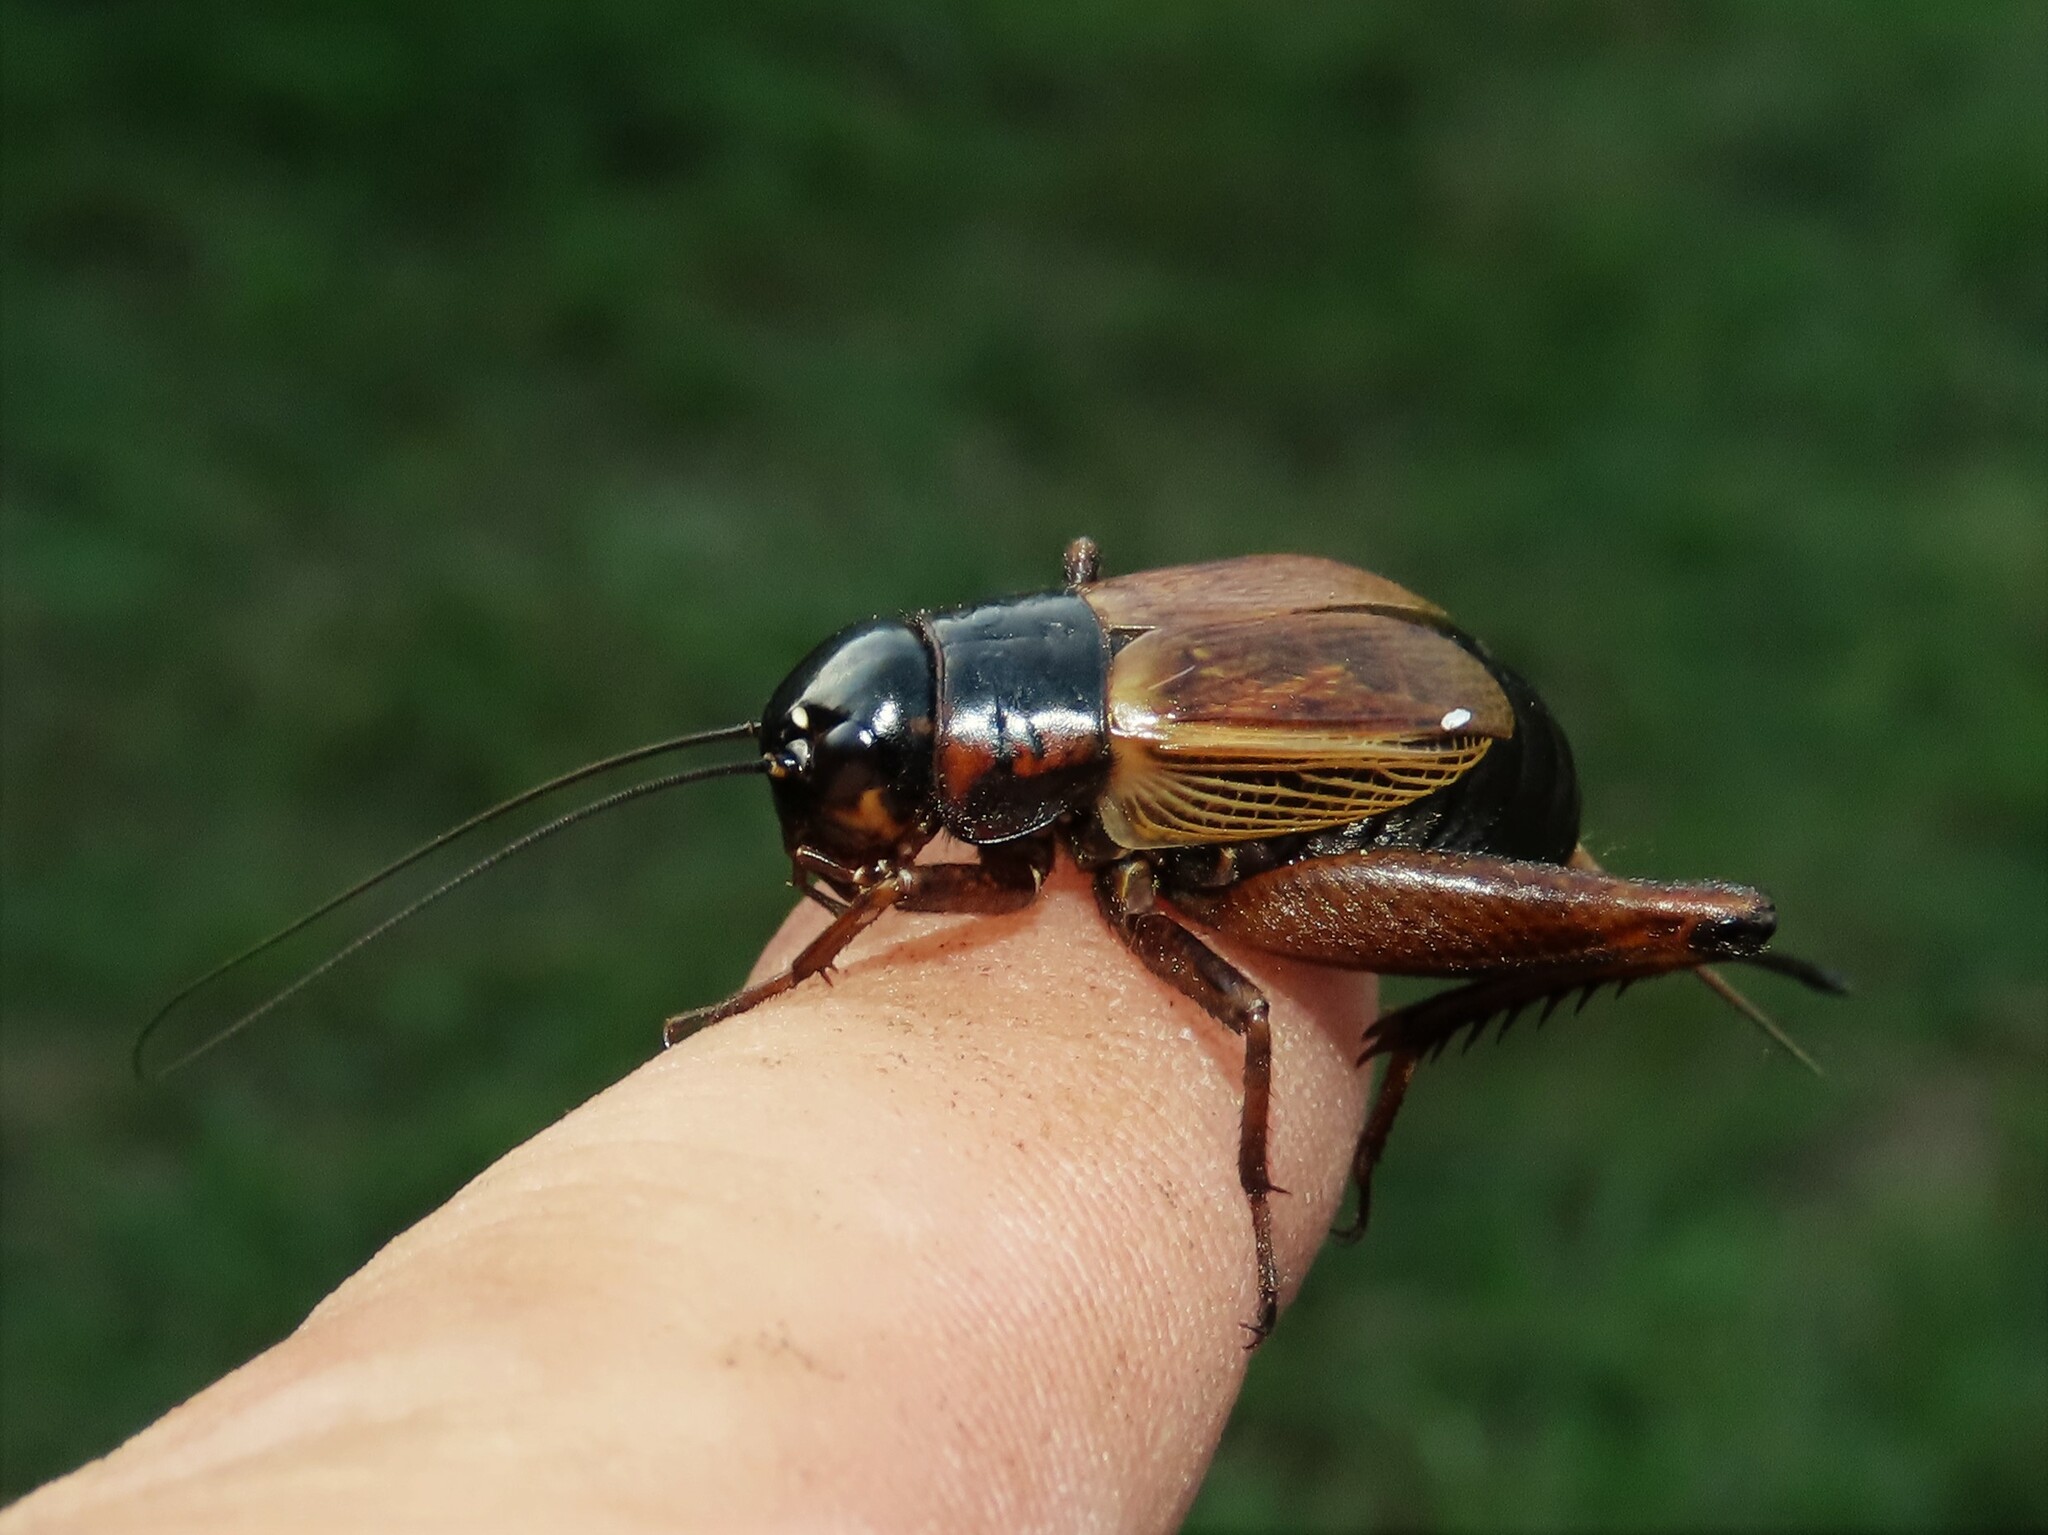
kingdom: Animalia
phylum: Arthropoda
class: Insecta
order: Orthoptera
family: Gryllidae
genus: Gryllus
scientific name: Gryllus pennsylvanicus
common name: Fall field cricket
